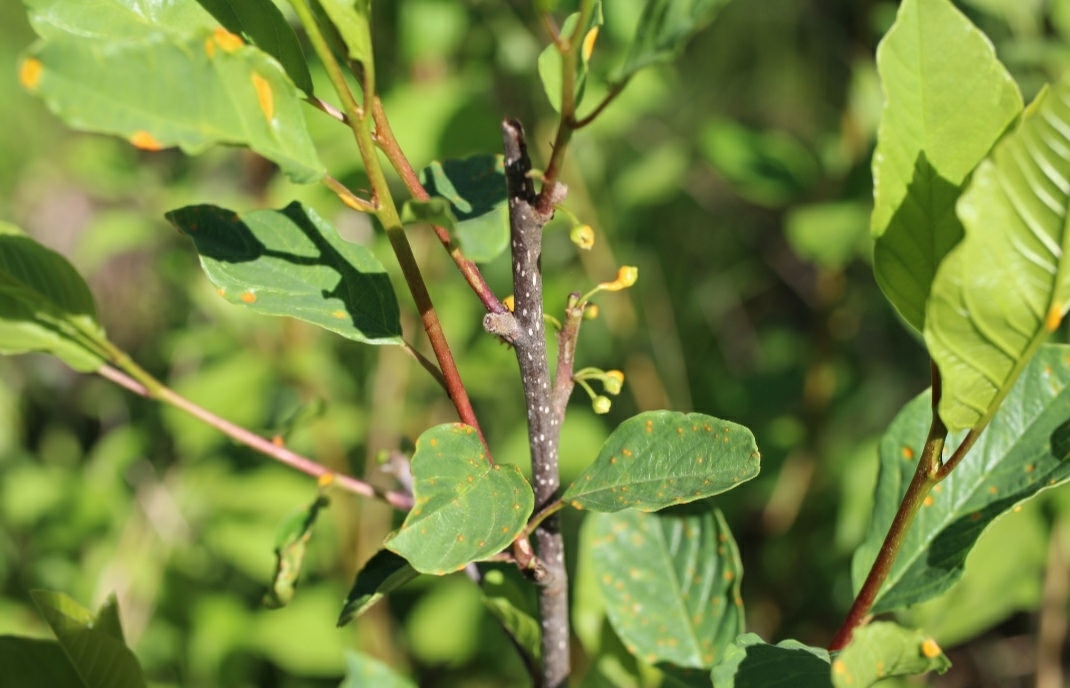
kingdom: Plantae
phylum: Tracheophyta
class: Magnoliopsida
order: Rosales
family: Rhamnaceae
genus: Frangula
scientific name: Frangula alnus
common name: Alder buckthorn
